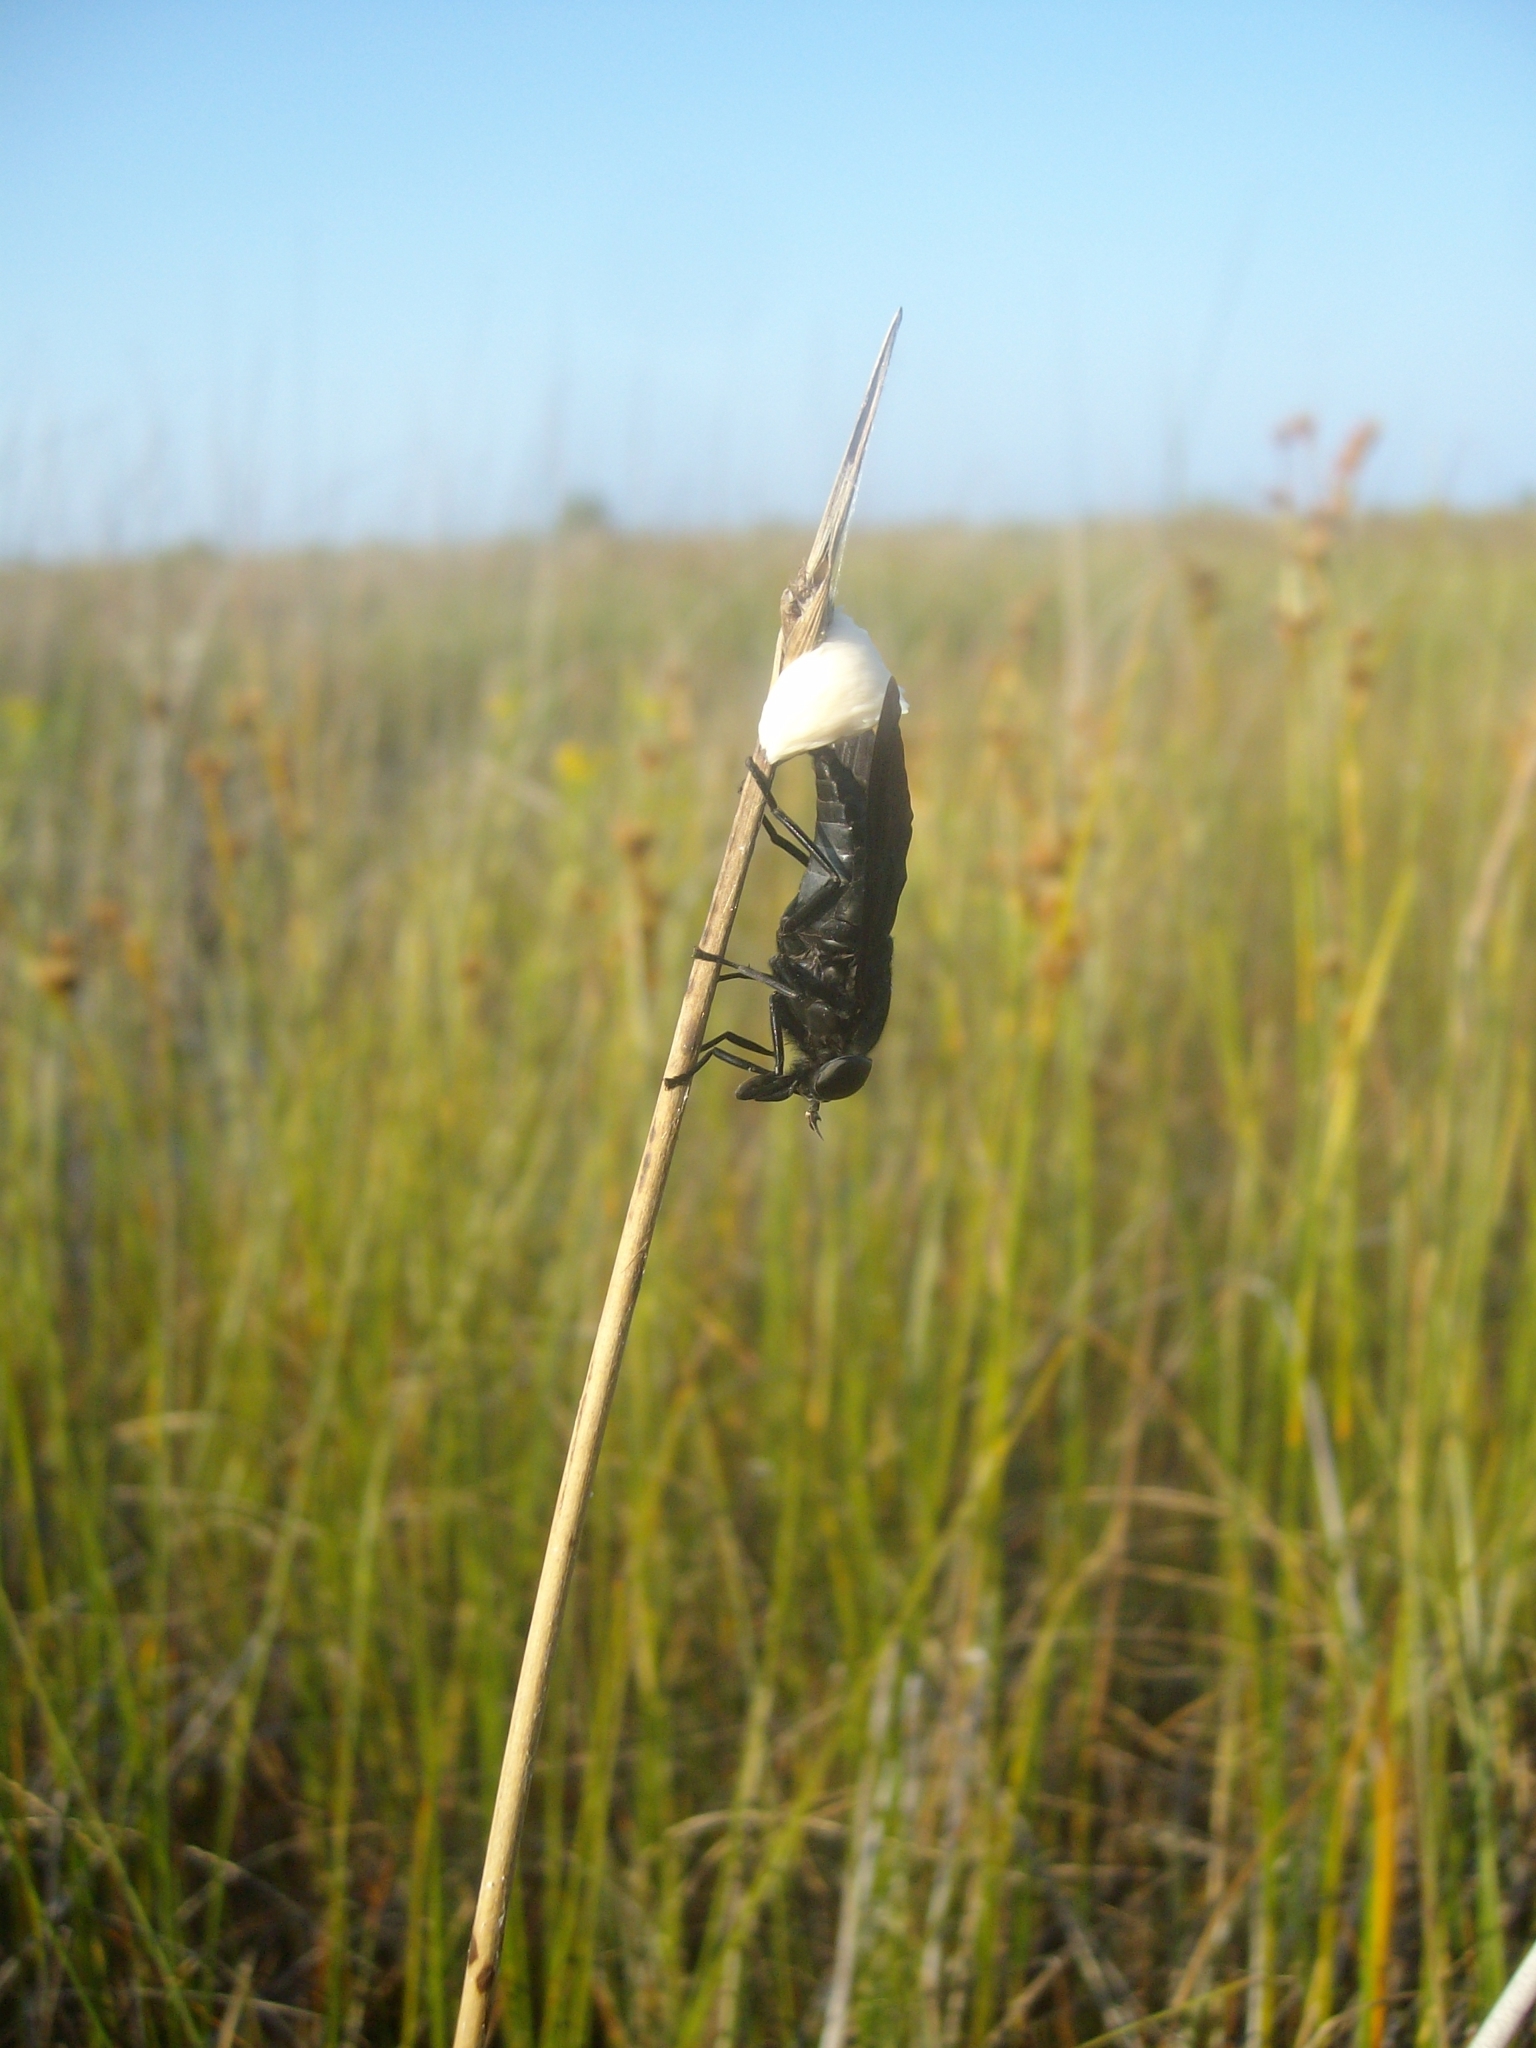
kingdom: Animalia
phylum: Arthropoda
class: Insecta
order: Diptera
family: Tabanidae
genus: Tabanus
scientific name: Tabanus atratus
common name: Black horse fly
